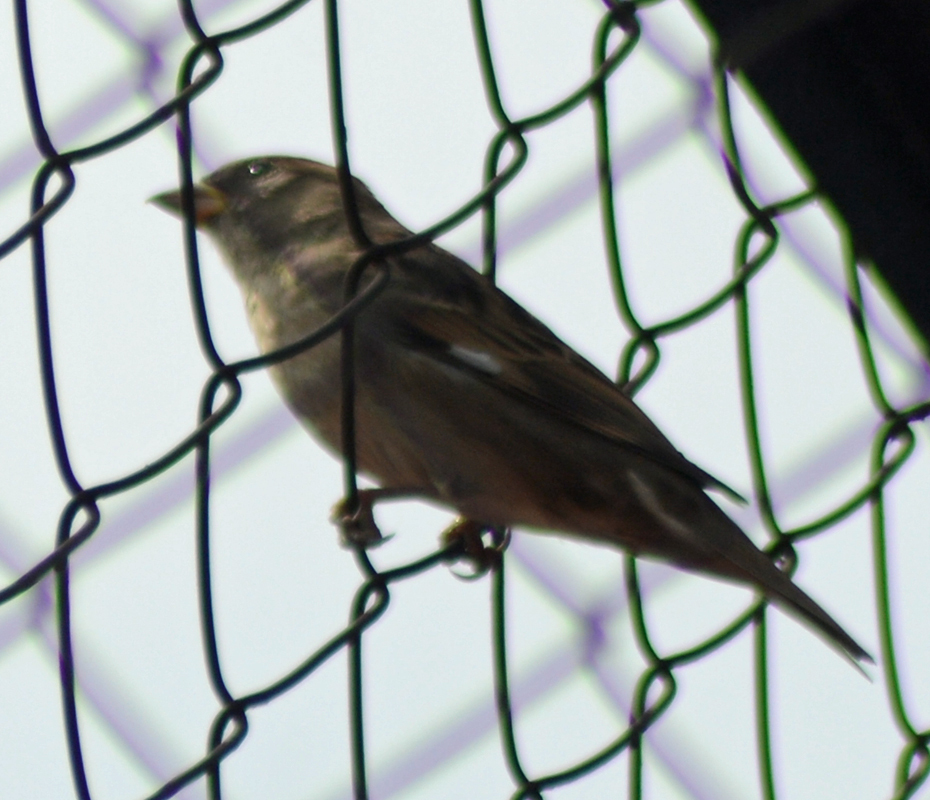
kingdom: Animalia
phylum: Chordata
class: Aves
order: Passeriformes
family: Passeridae
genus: Passer
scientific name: Passer domesticus
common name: House sparrow
